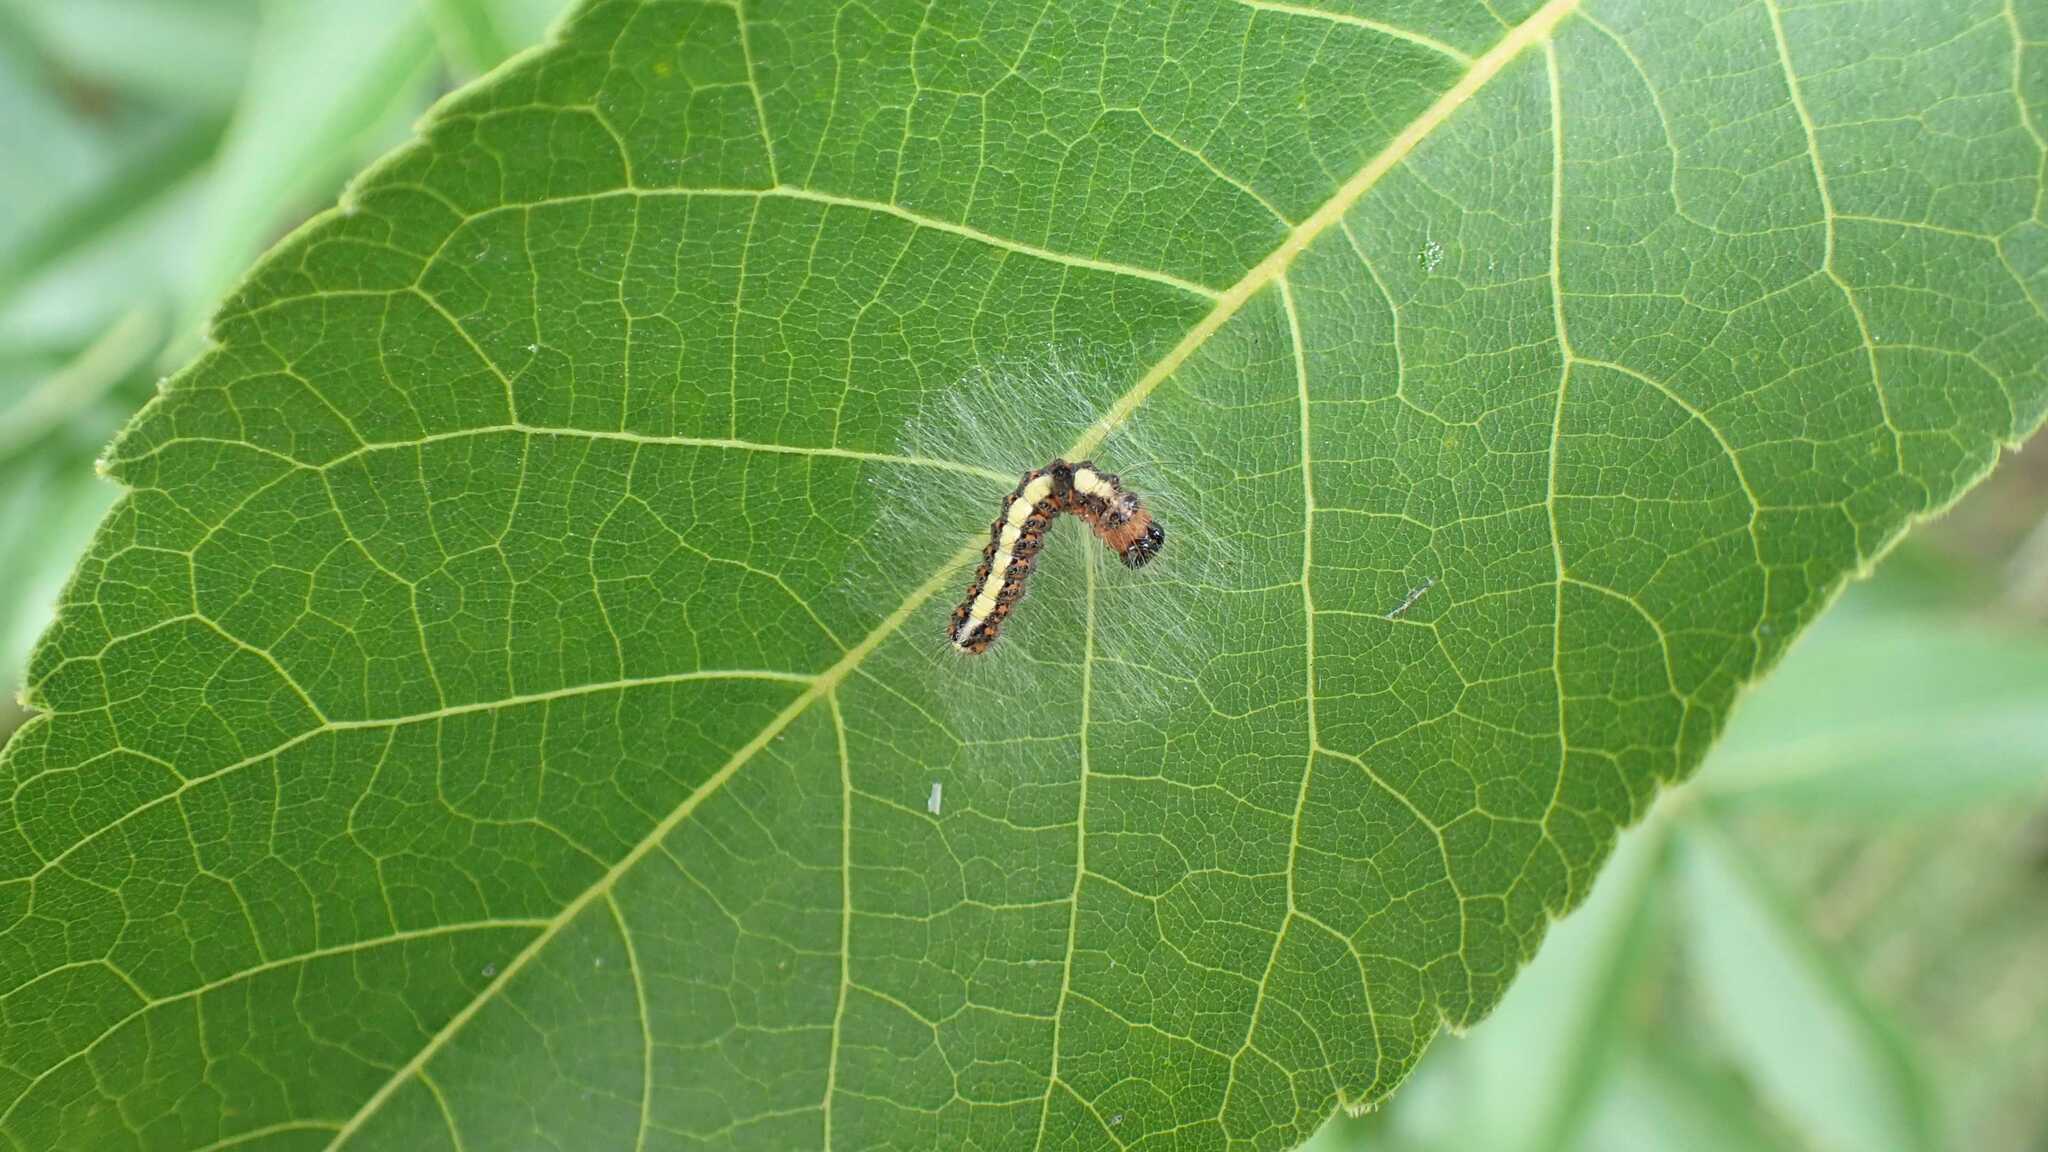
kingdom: Animalia
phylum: Arthropoda
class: Insecta
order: Lepidoptera
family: Noctuidae
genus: Acronicta
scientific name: Acronicta psi
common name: Grey dagger
